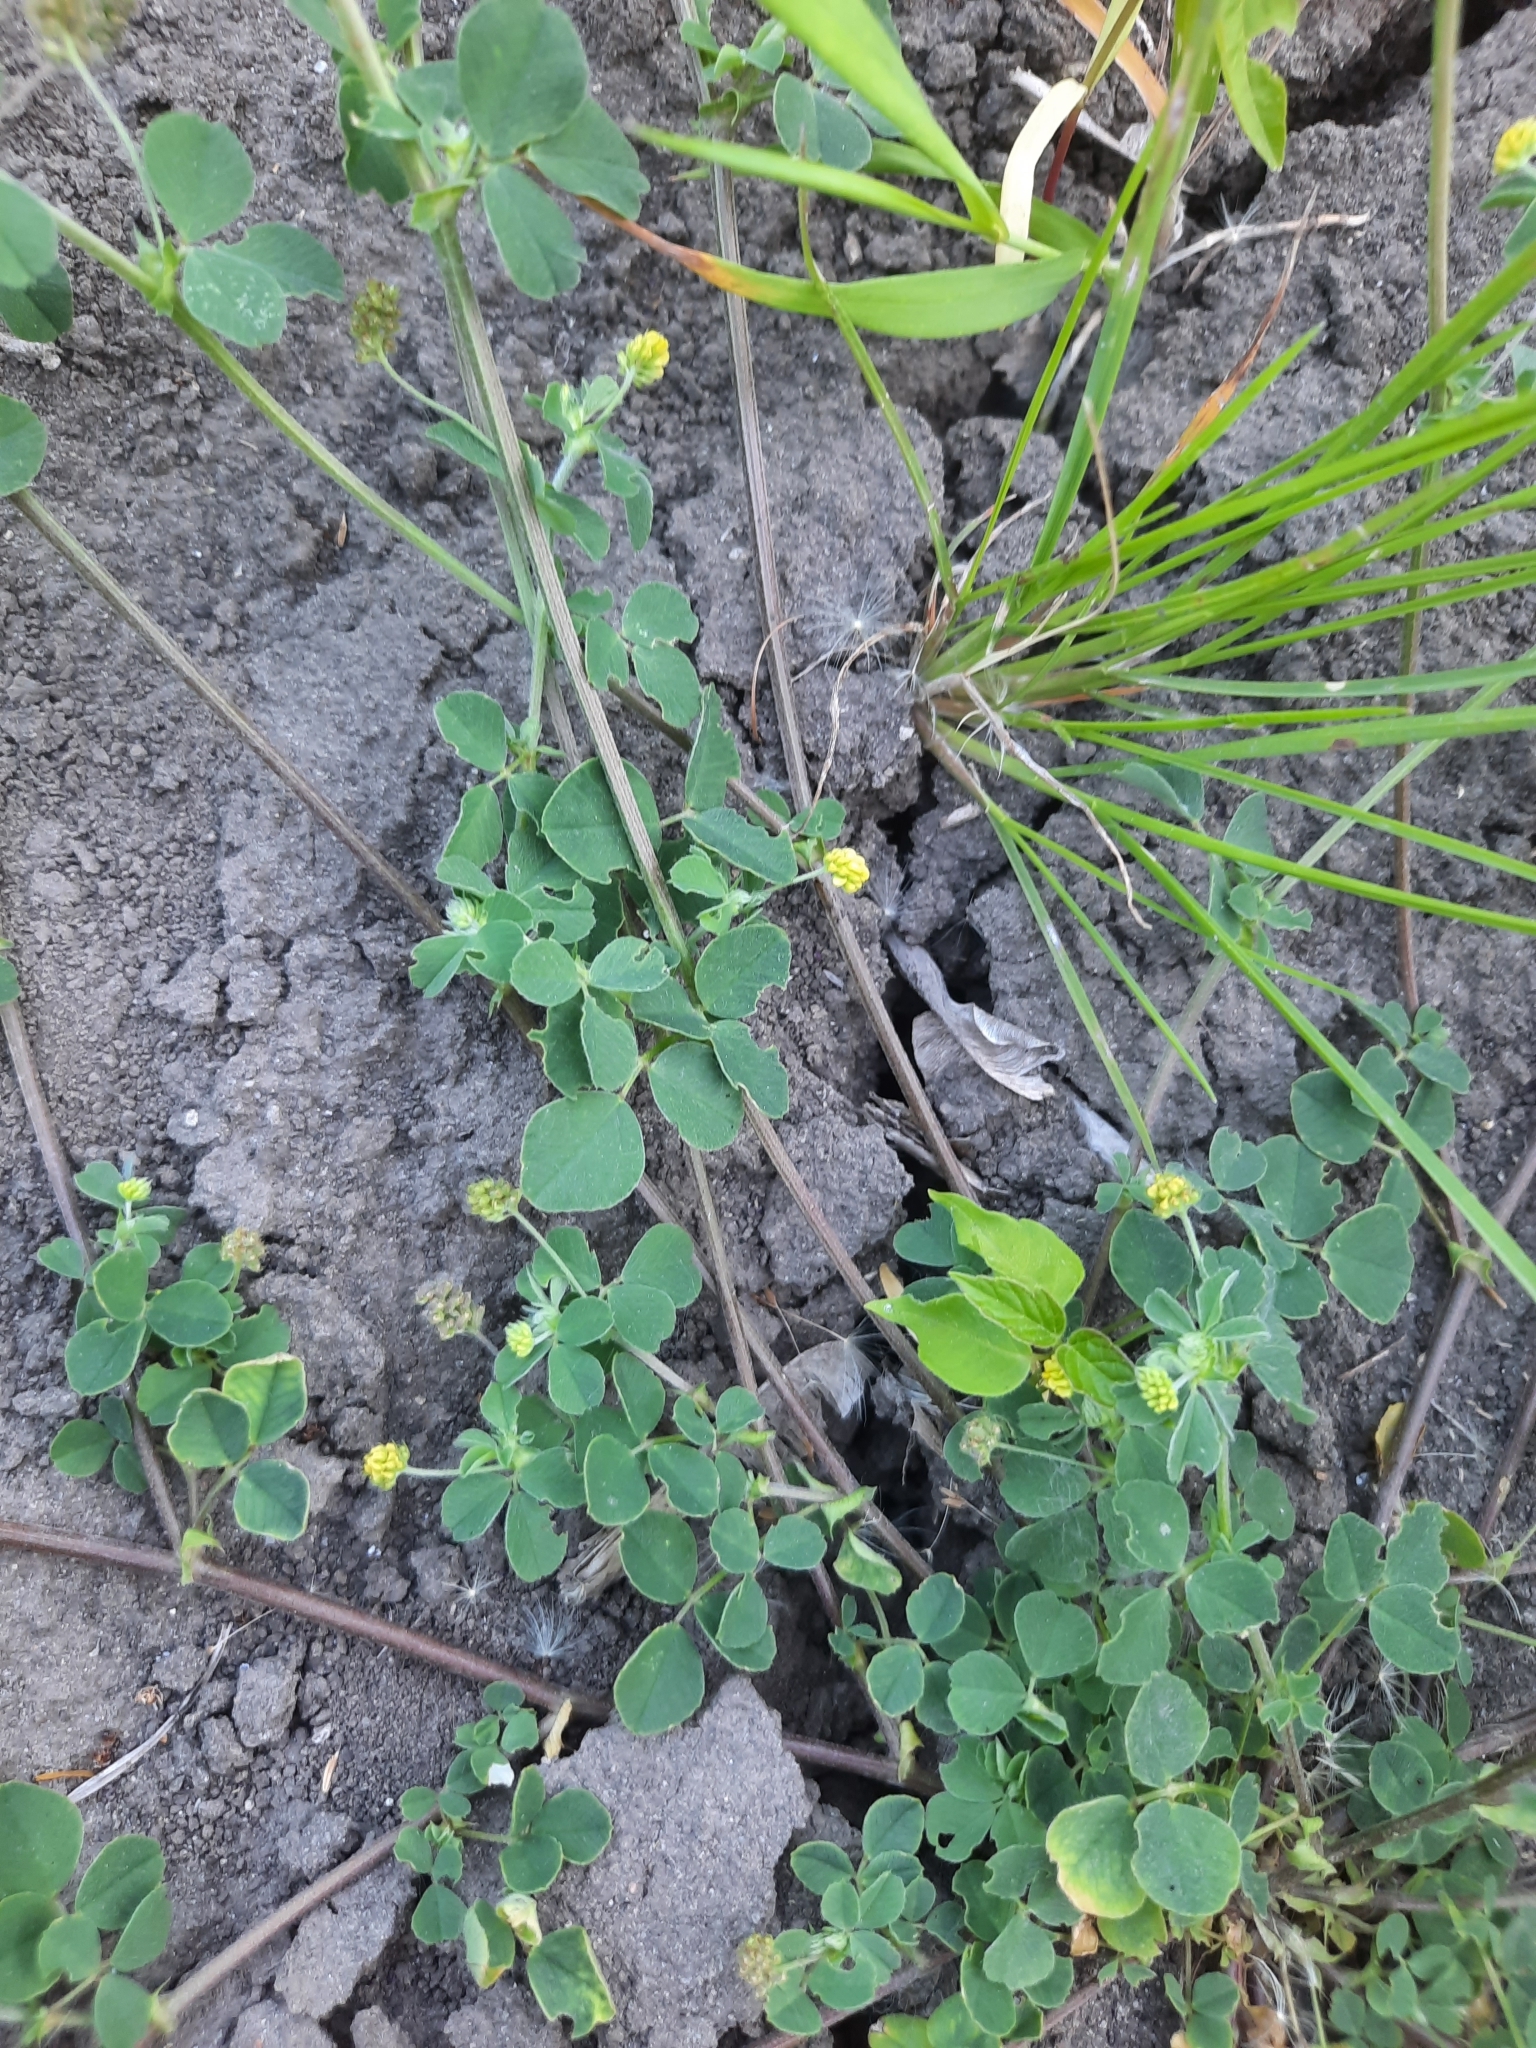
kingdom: Plantae
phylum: Tracheophyta
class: Magnoliopsida
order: Fabales
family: Fabaceae
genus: Medicago
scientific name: Medicago lupulina
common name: Black medick
